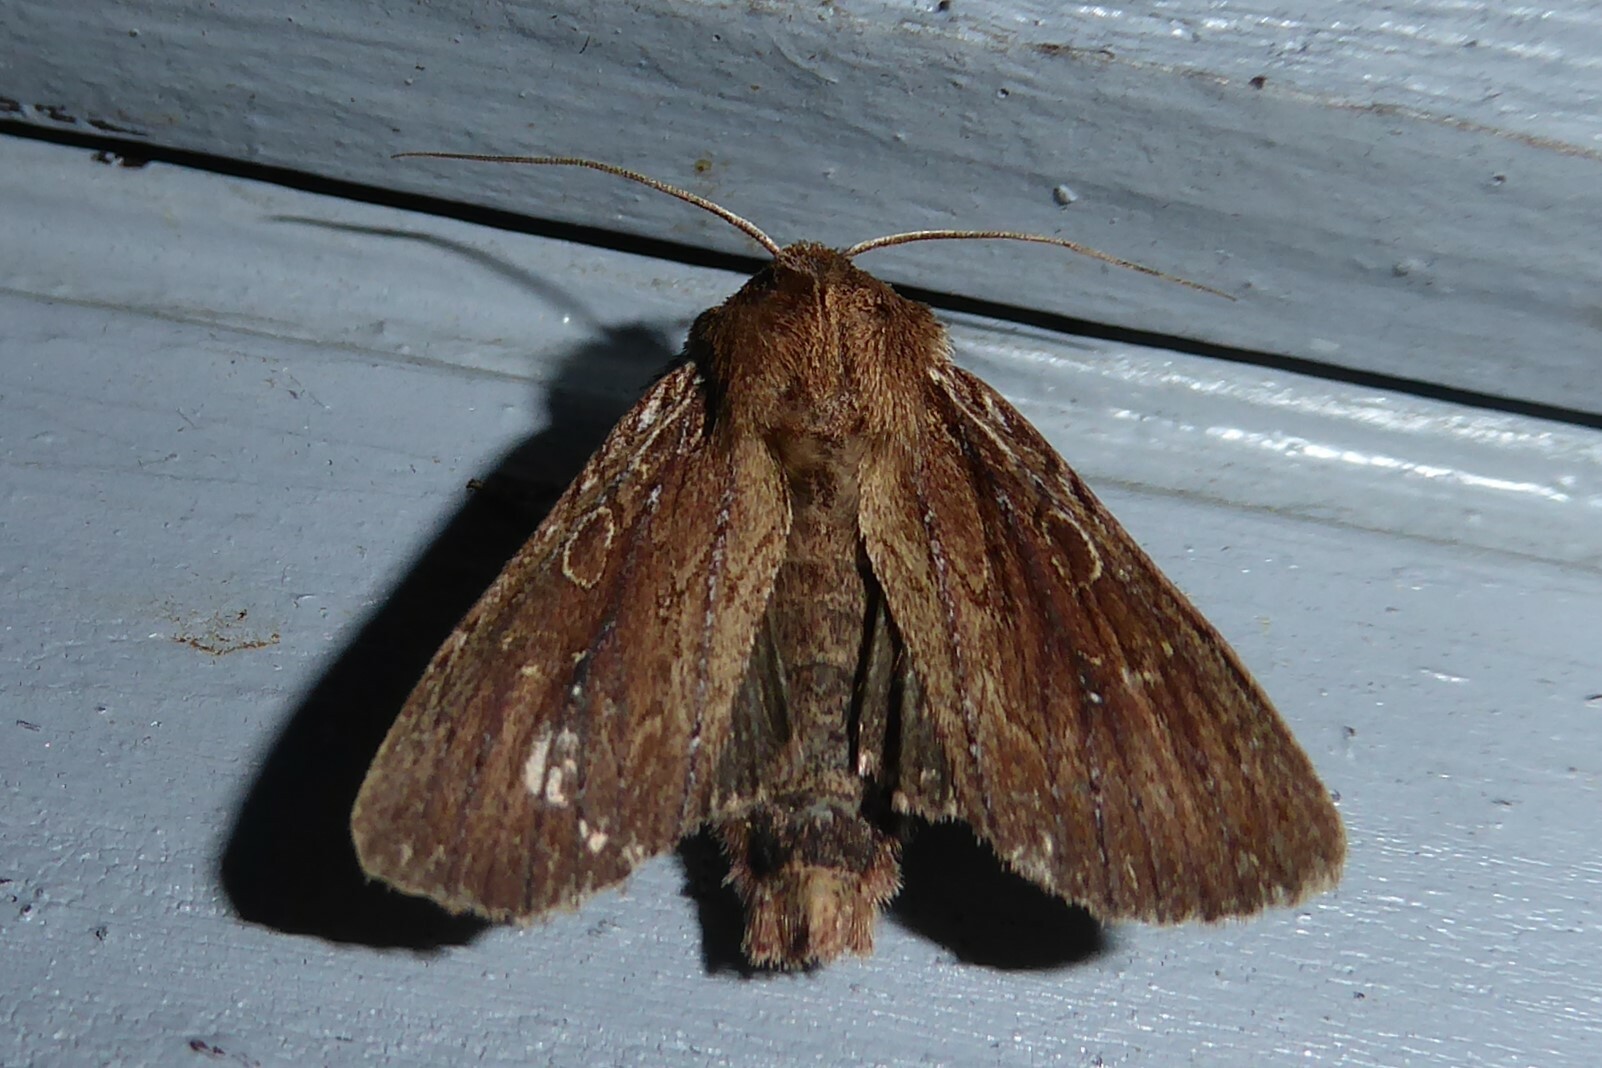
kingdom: Animalia
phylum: Arthropoda
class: Insecta
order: Lepidoptera
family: Noctuidae
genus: Ichneutica
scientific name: Ichneutica
